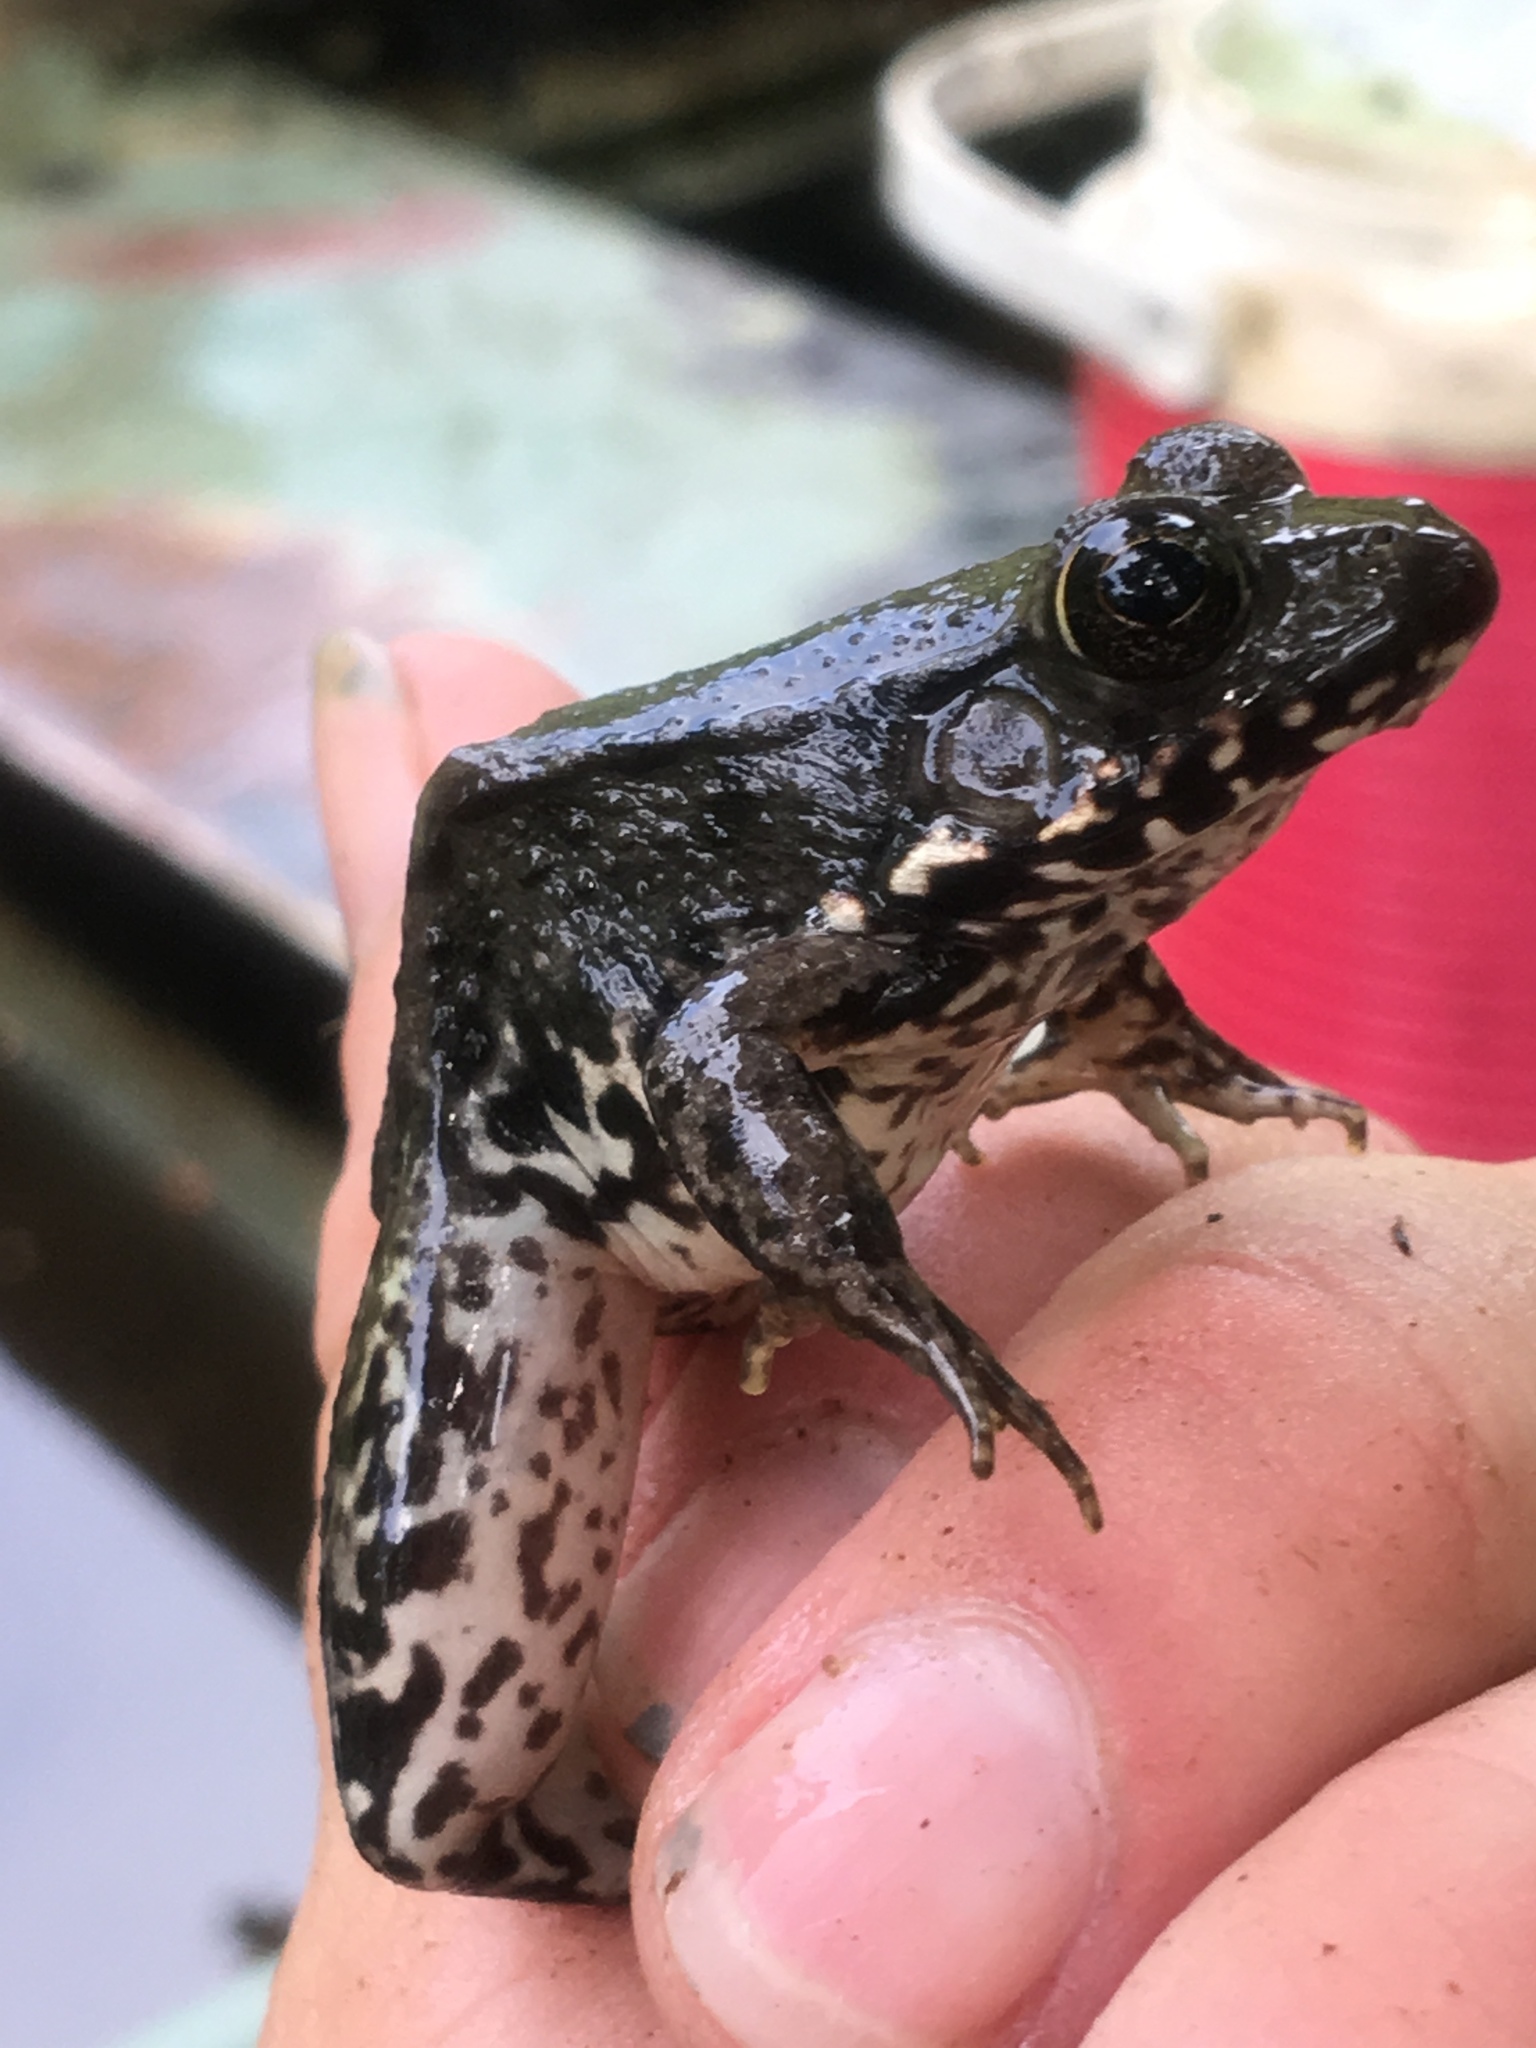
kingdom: Animalia
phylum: Chordata
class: Amphibia
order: Anura
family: Ranidae
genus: Lithobates
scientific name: Lithobates clamitans
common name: Green frog
